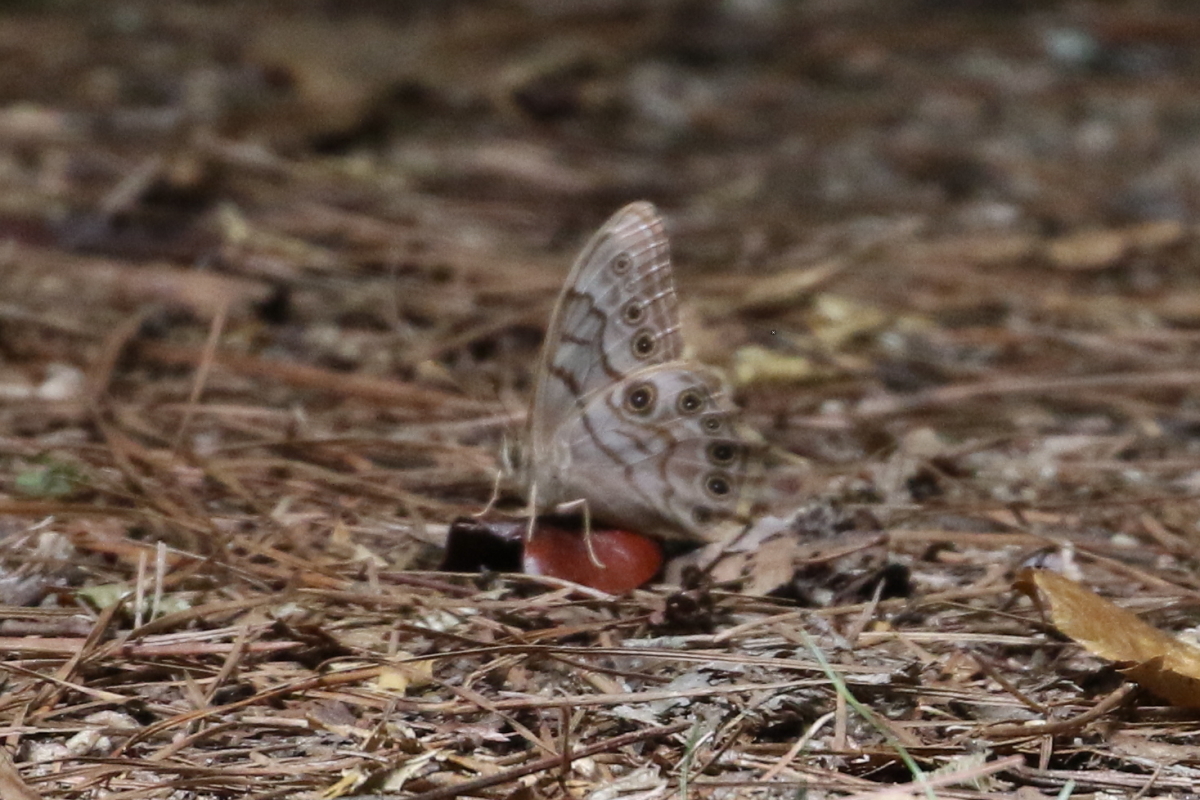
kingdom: Animalia
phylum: Arthropoda
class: Insecta
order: Lepidoptera
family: Nymphalidae
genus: Lethe
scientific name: Lethe creola
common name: Creole pearly-eye
